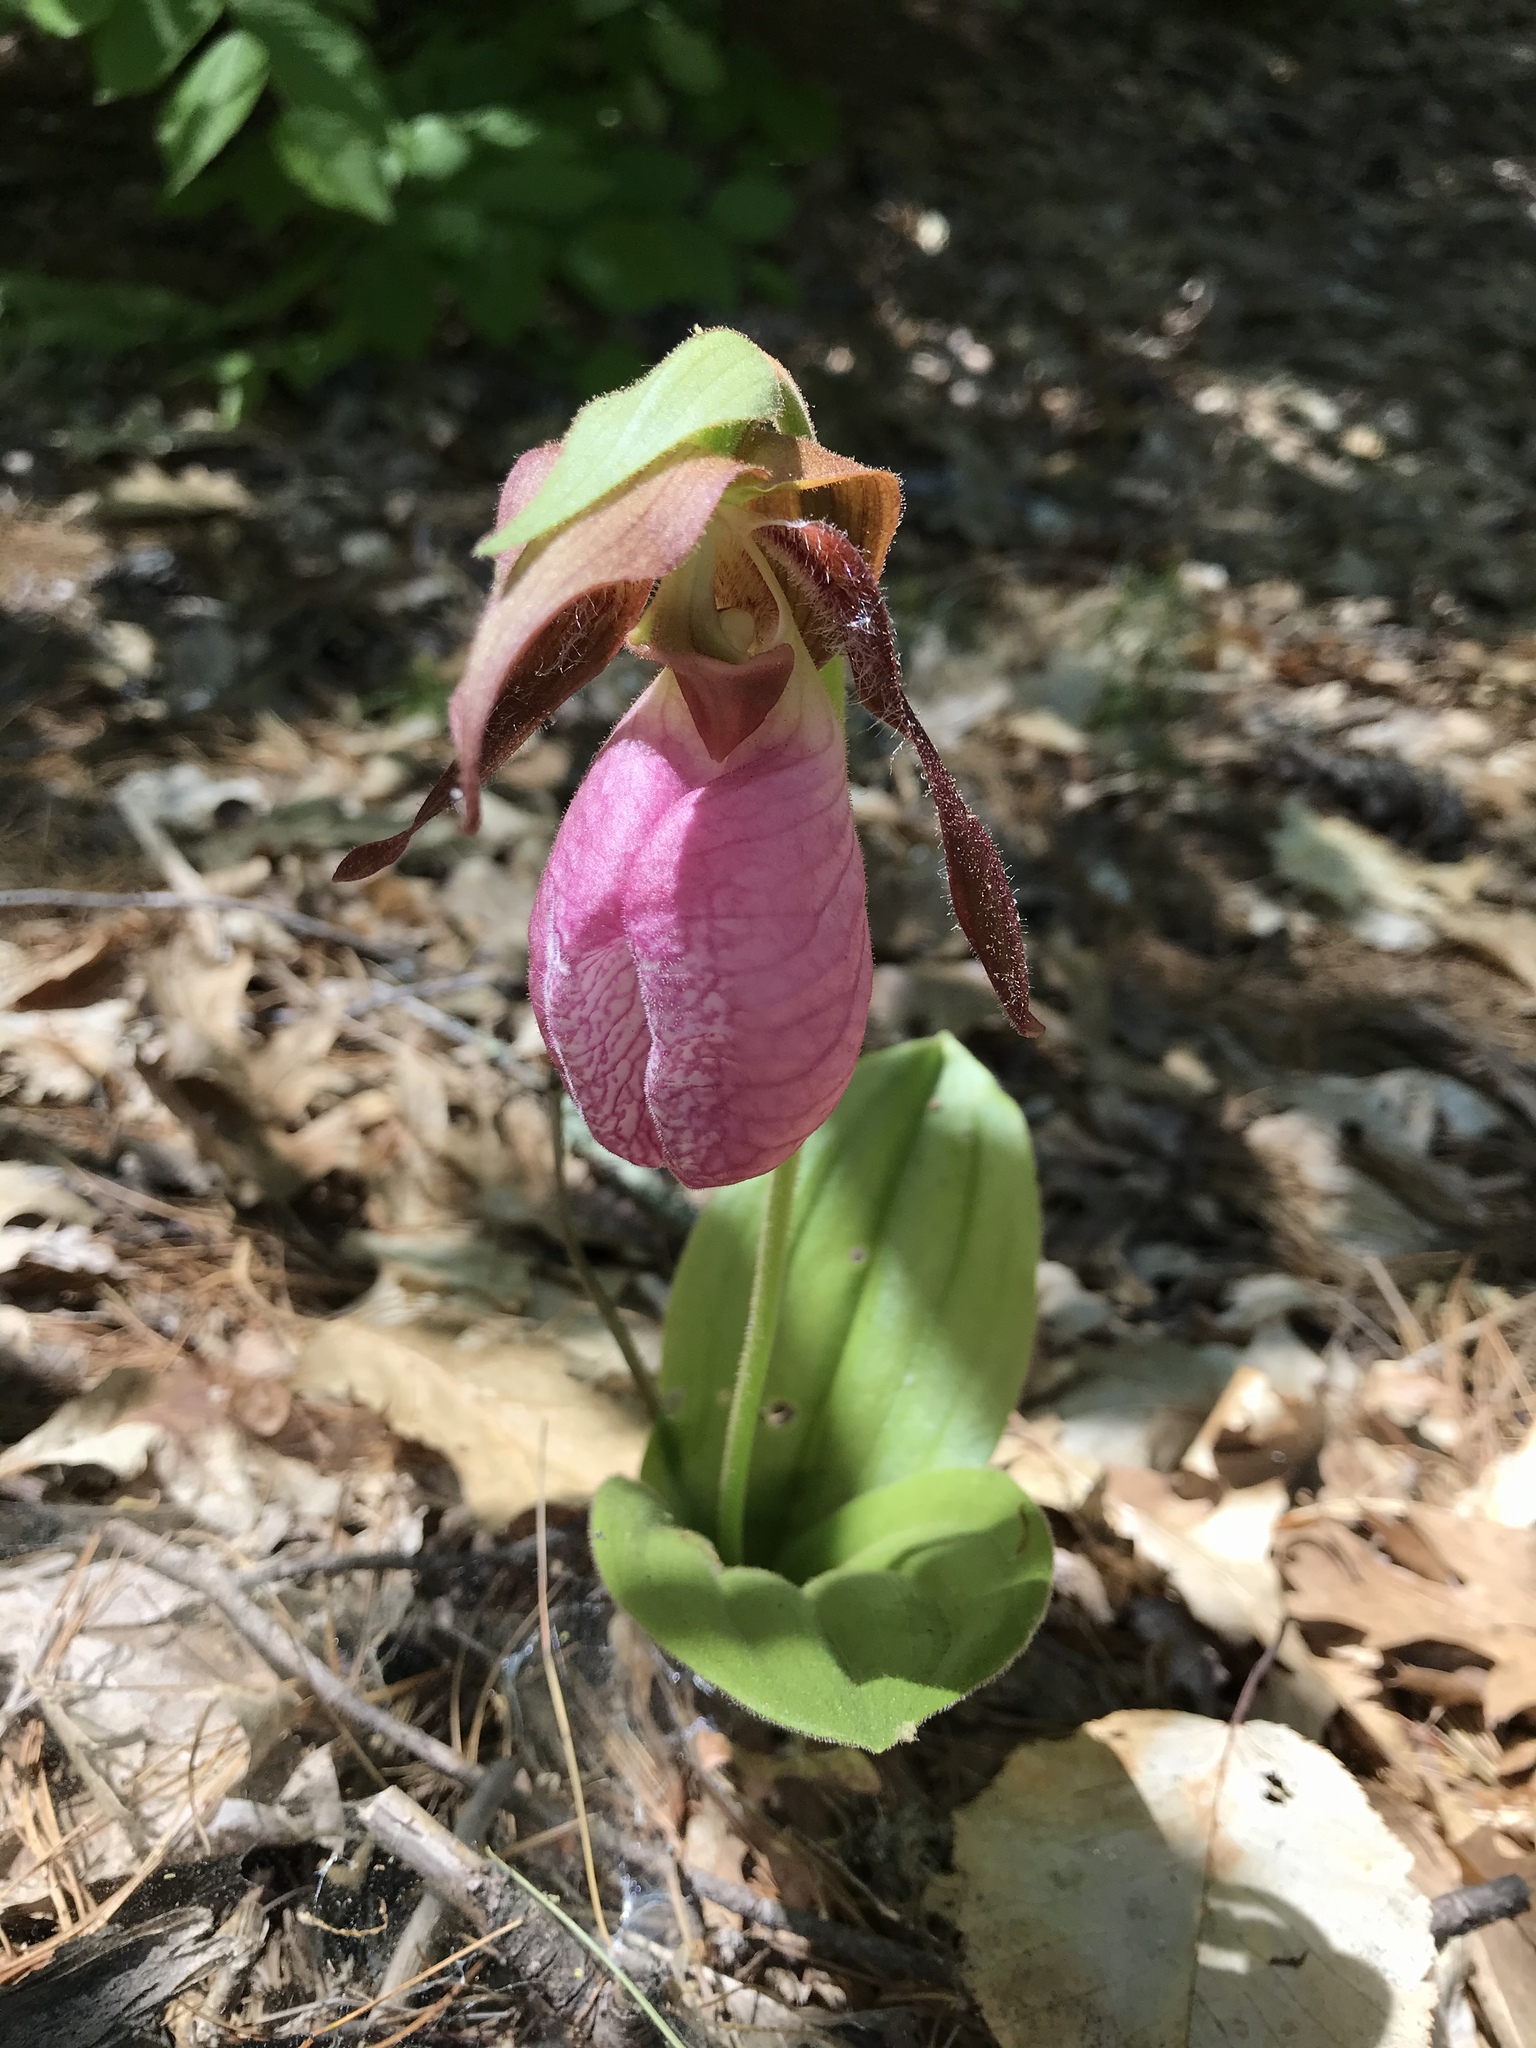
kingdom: Plantae
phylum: Tracheophyta
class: Liliopsida
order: Asparagales
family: Orchidaceae
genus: Cypripedium
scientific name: Cypripedium acaule
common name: Pink lady's-slipper
